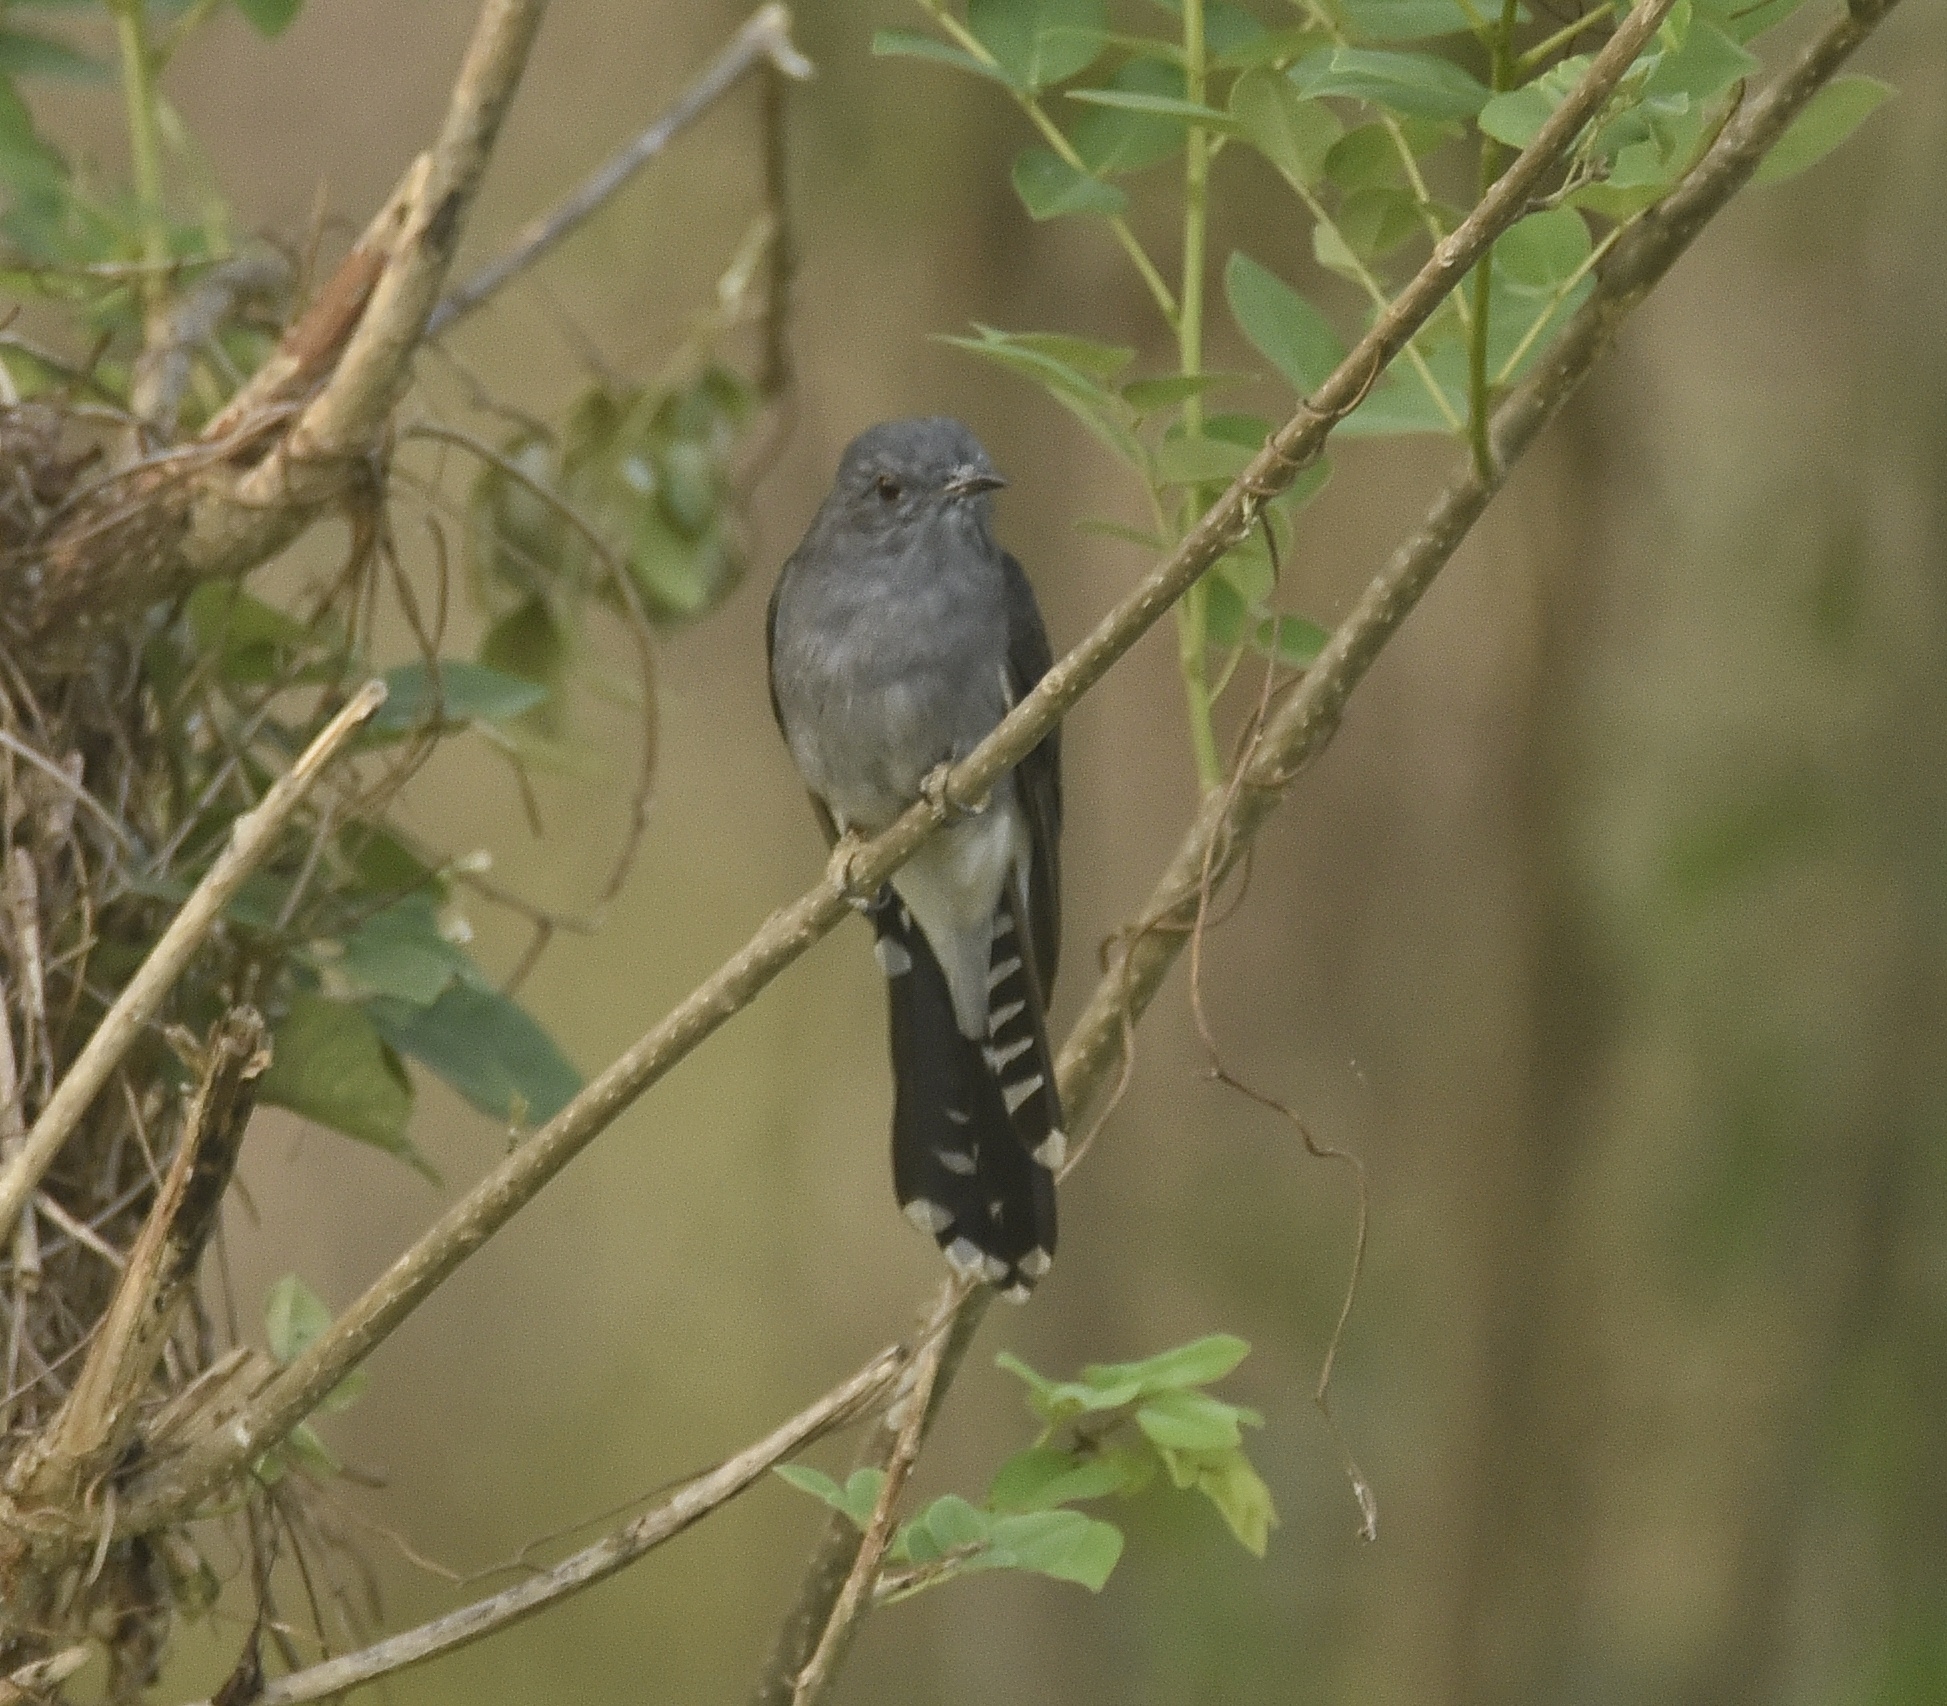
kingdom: Animalia
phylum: Chordata
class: Aves
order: Cuculiformes
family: Cuculidae
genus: Cacomantis
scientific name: Cacomantis passerinus
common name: Grey-bellied cuckoo
